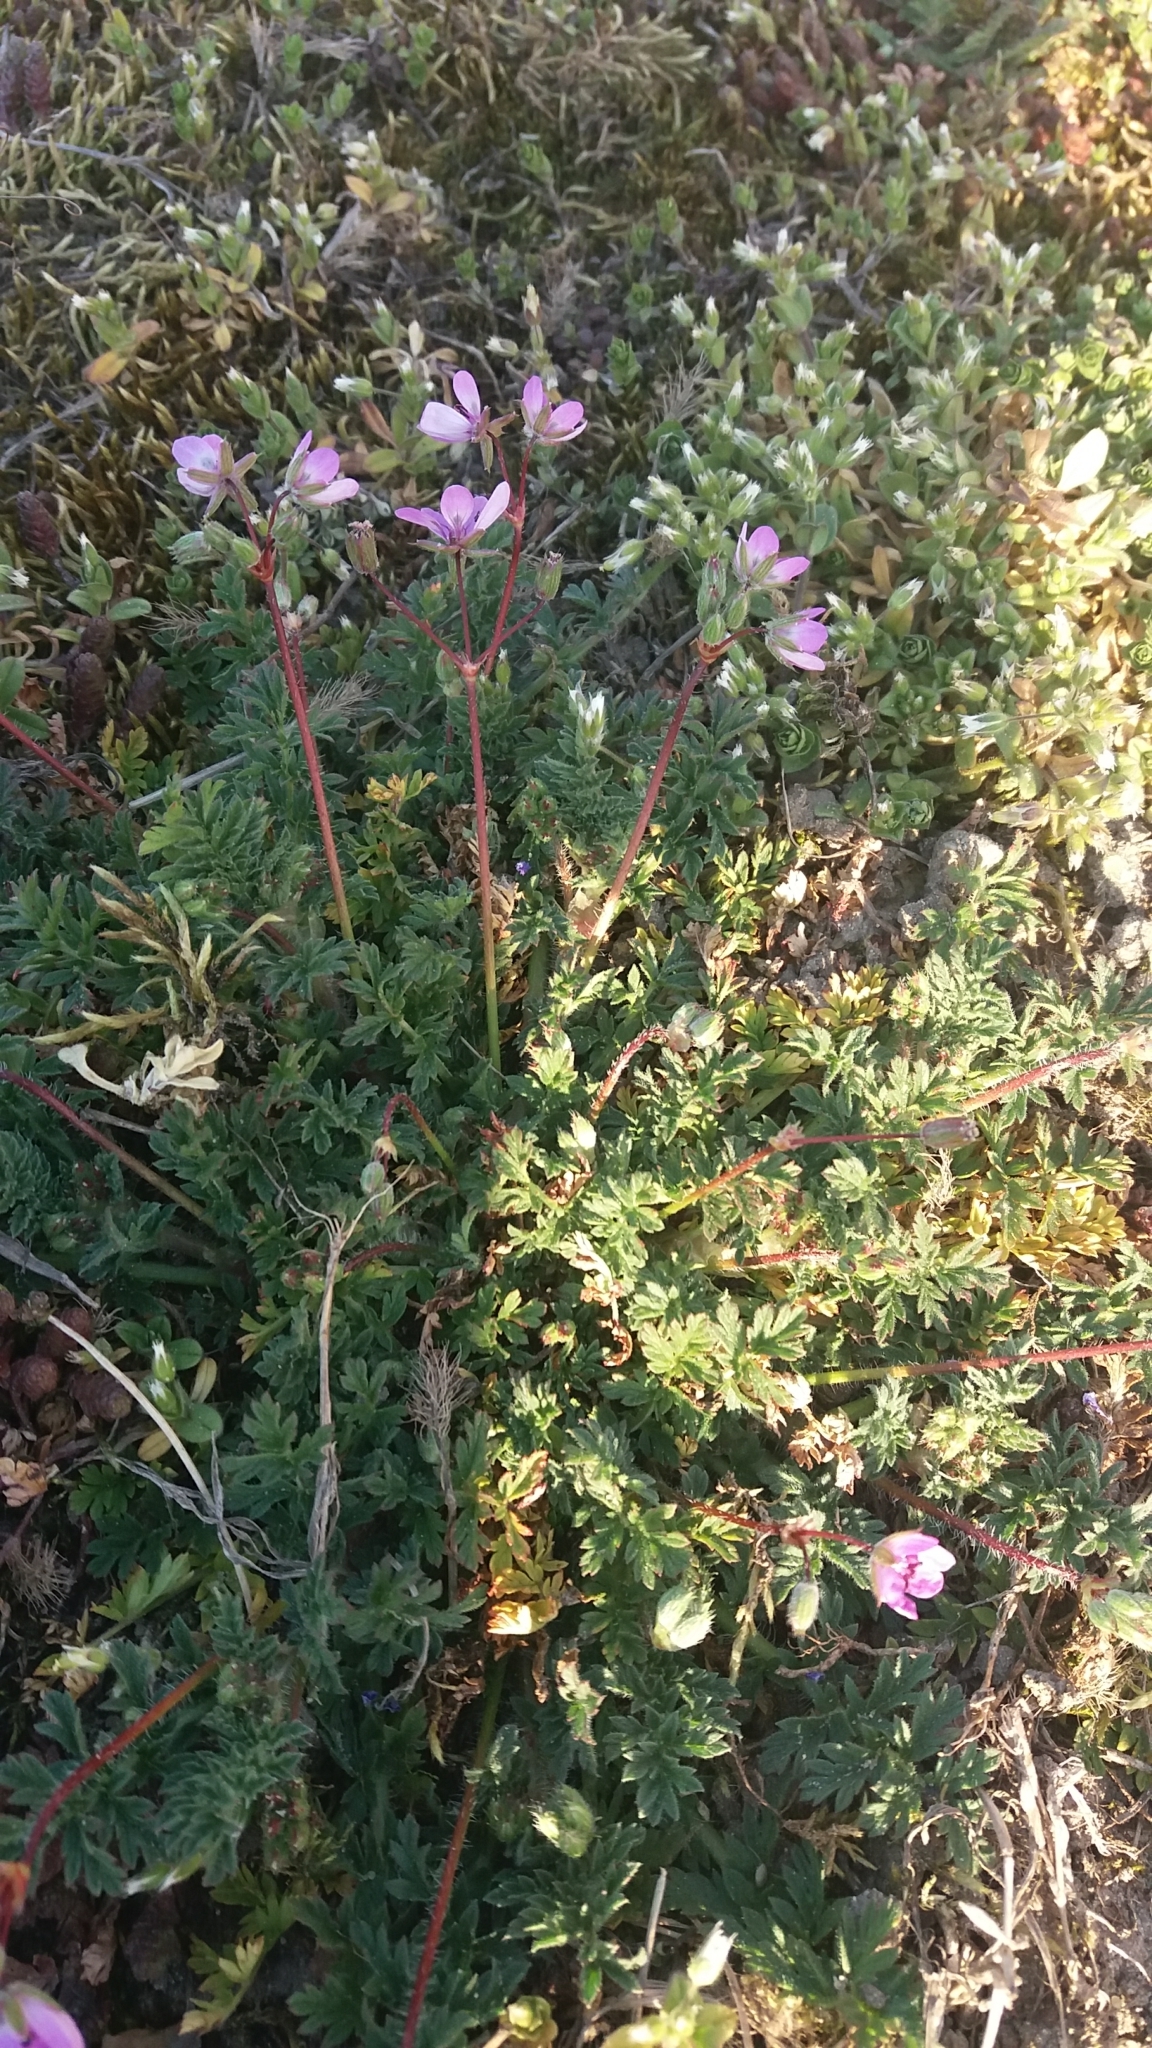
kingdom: Plantae
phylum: Tracheophyta
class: Magnoliopsida
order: Geraniales
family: Geraniaceae
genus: Erodium
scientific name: Erodium cicutarium
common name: Common stork's-bill
